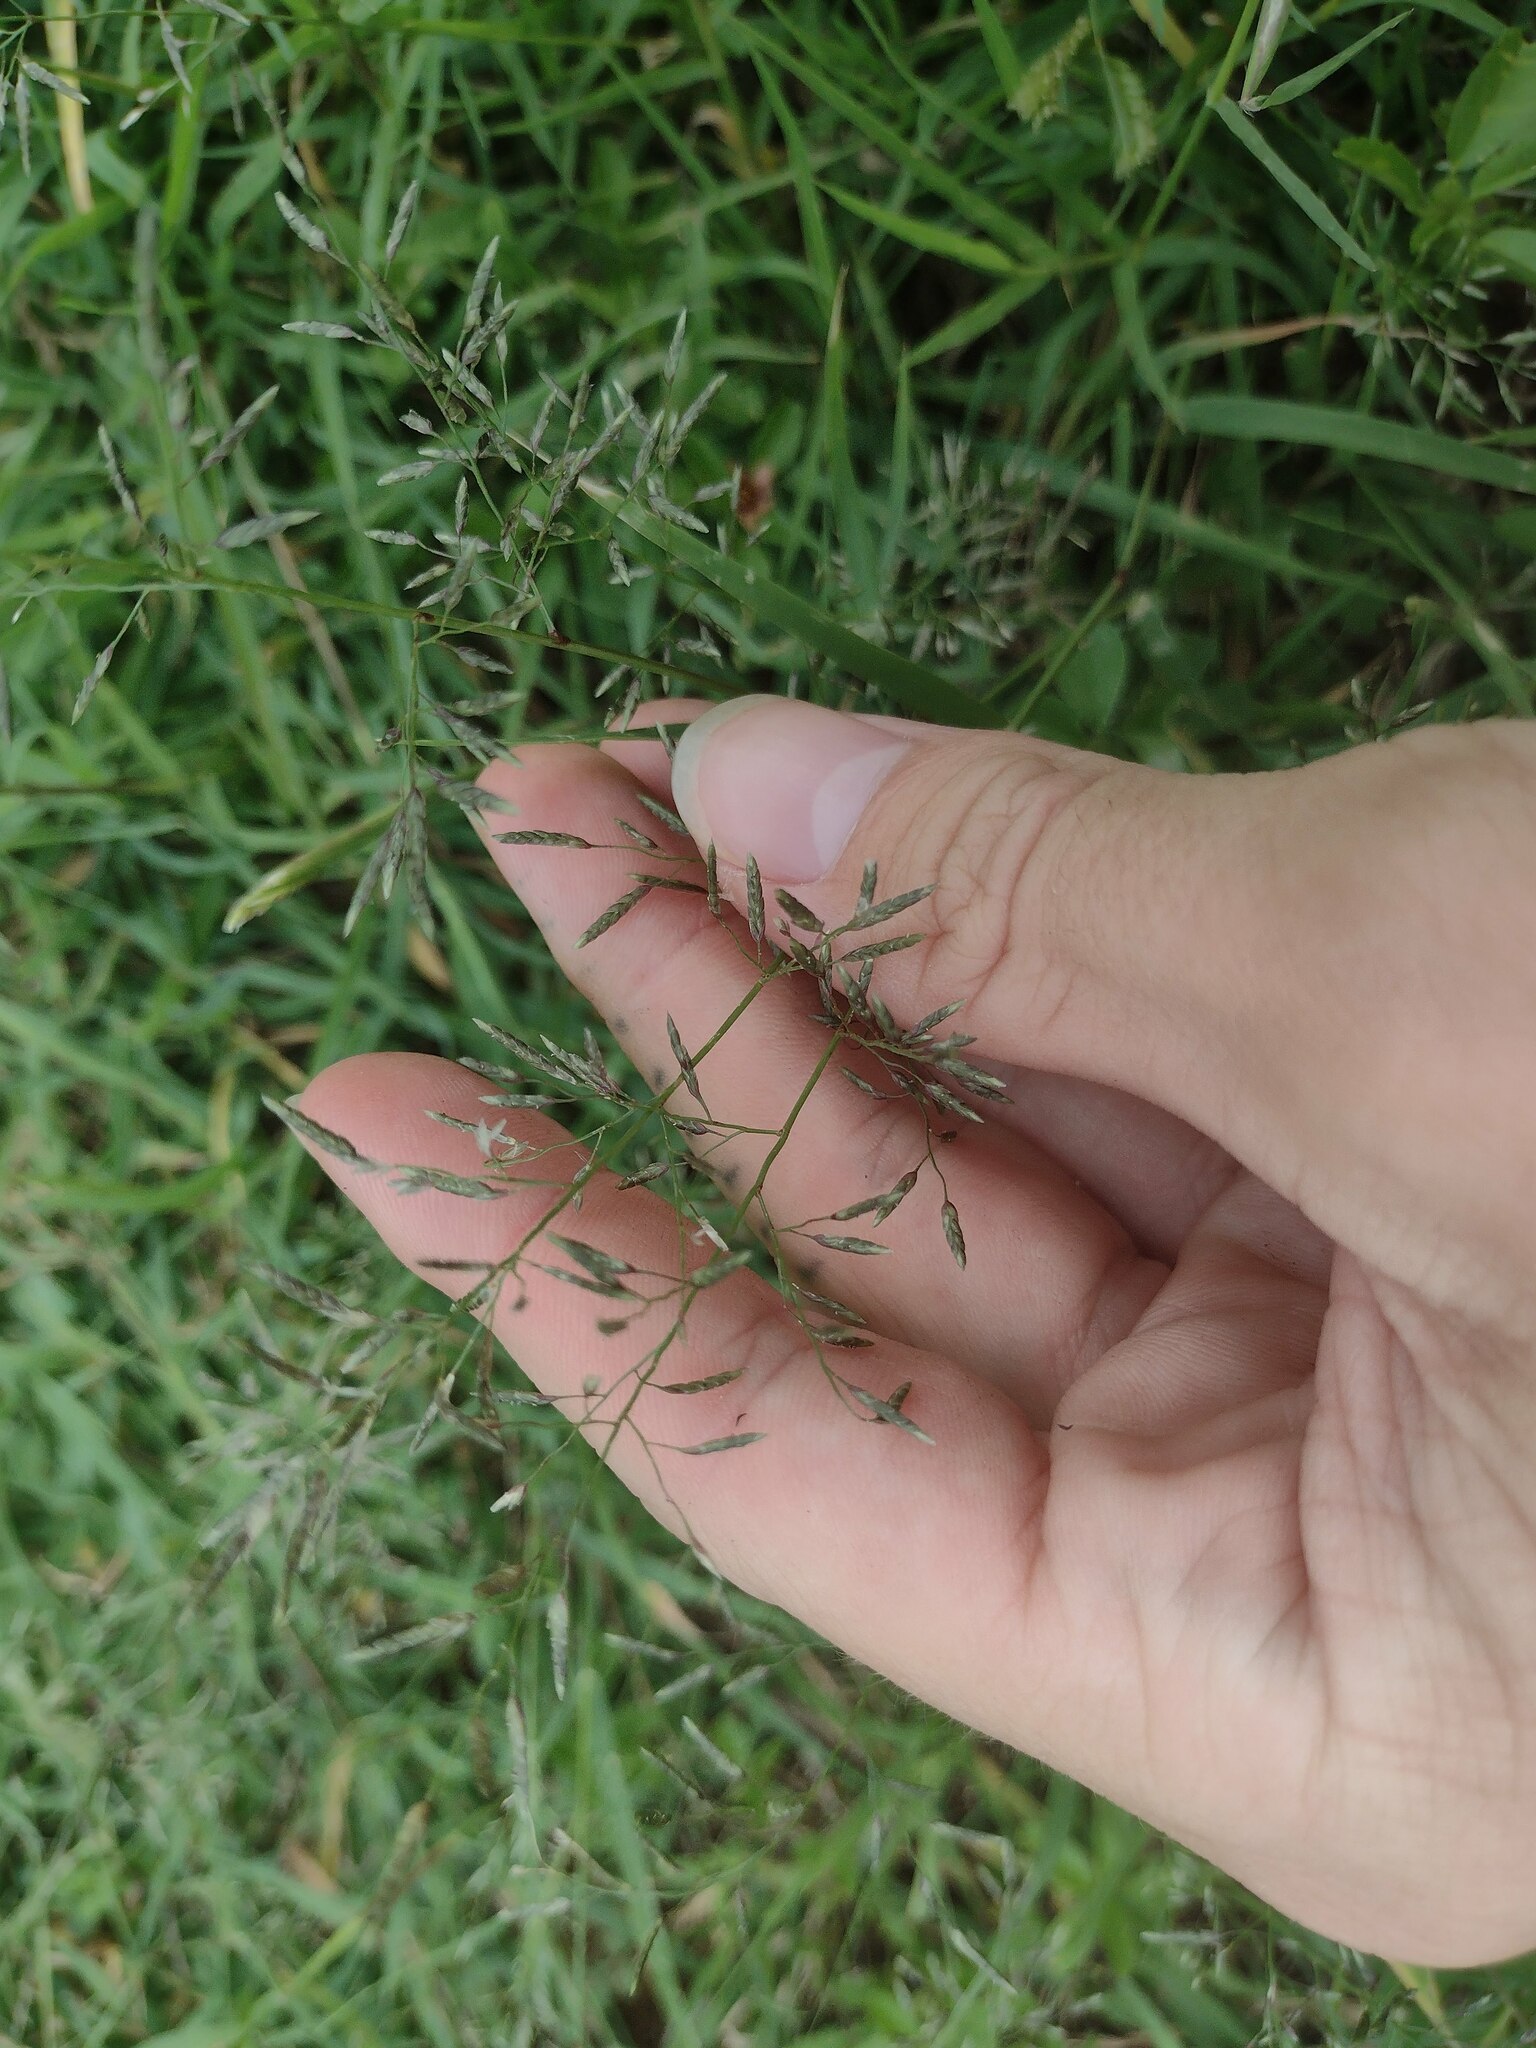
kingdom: Plantae
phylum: Tracheophyta
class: Liliopsida
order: Poales
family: Poaceae
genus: Eragrostis
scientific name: Eragrostis barrelieri
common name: Mediterranean lovegrass
